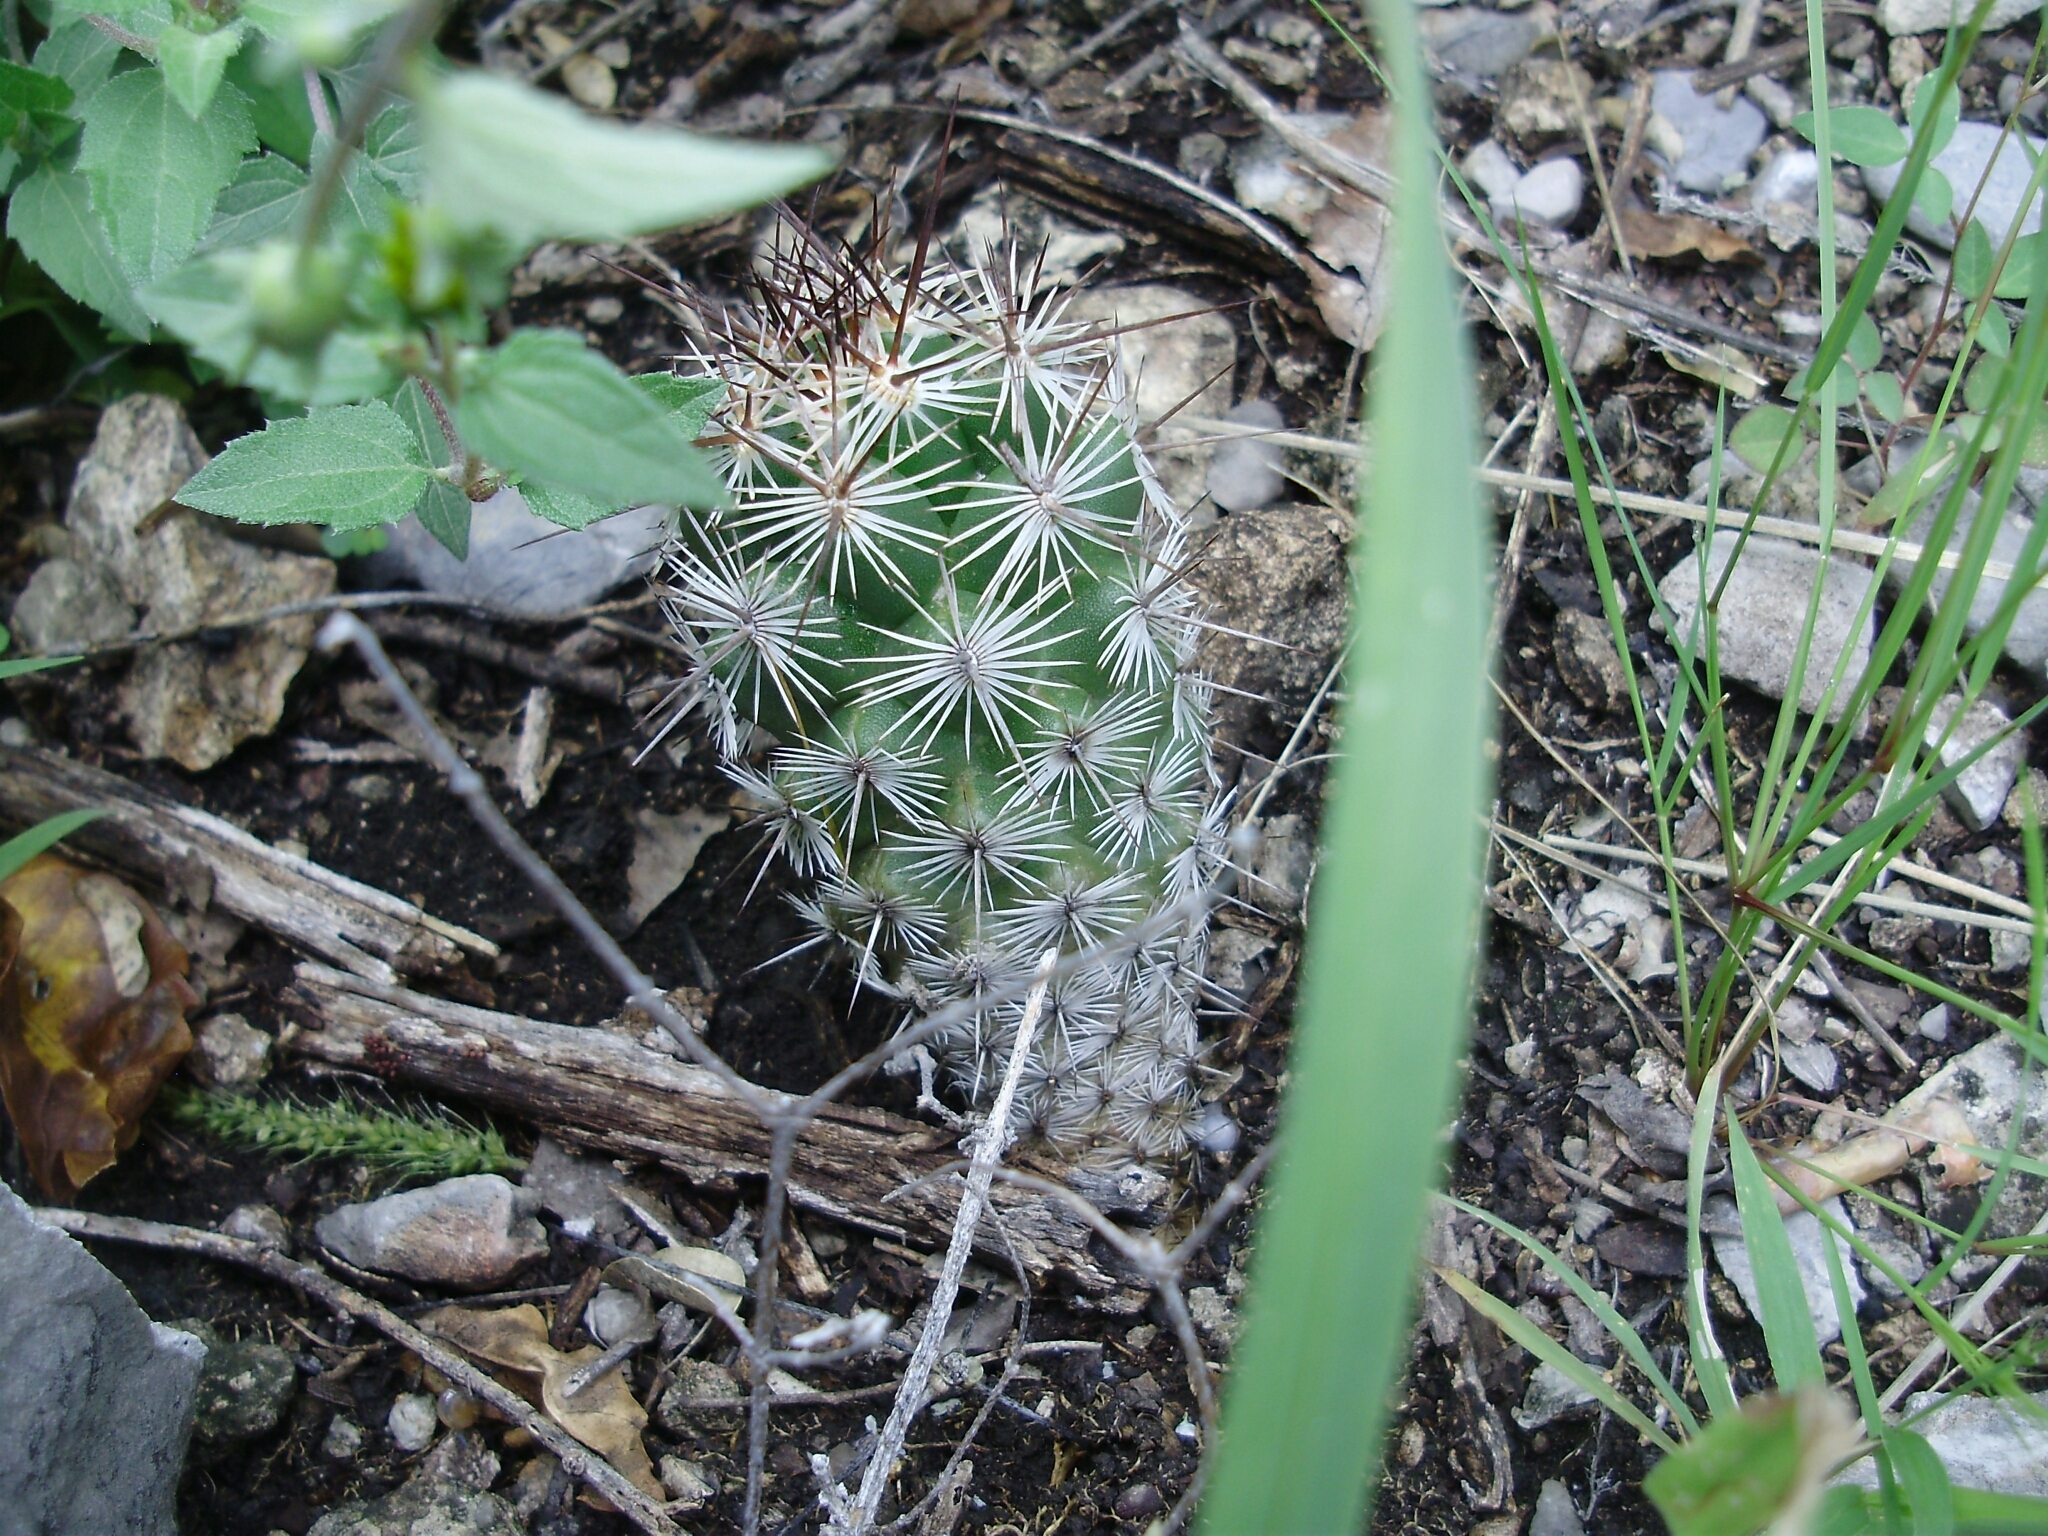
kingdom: Plantae
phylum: Tracheophyta
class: Magnoliopsida
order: Caryophyllales
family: Cactaceae
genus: Cochemiea
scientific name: Cochemiea conoidea
